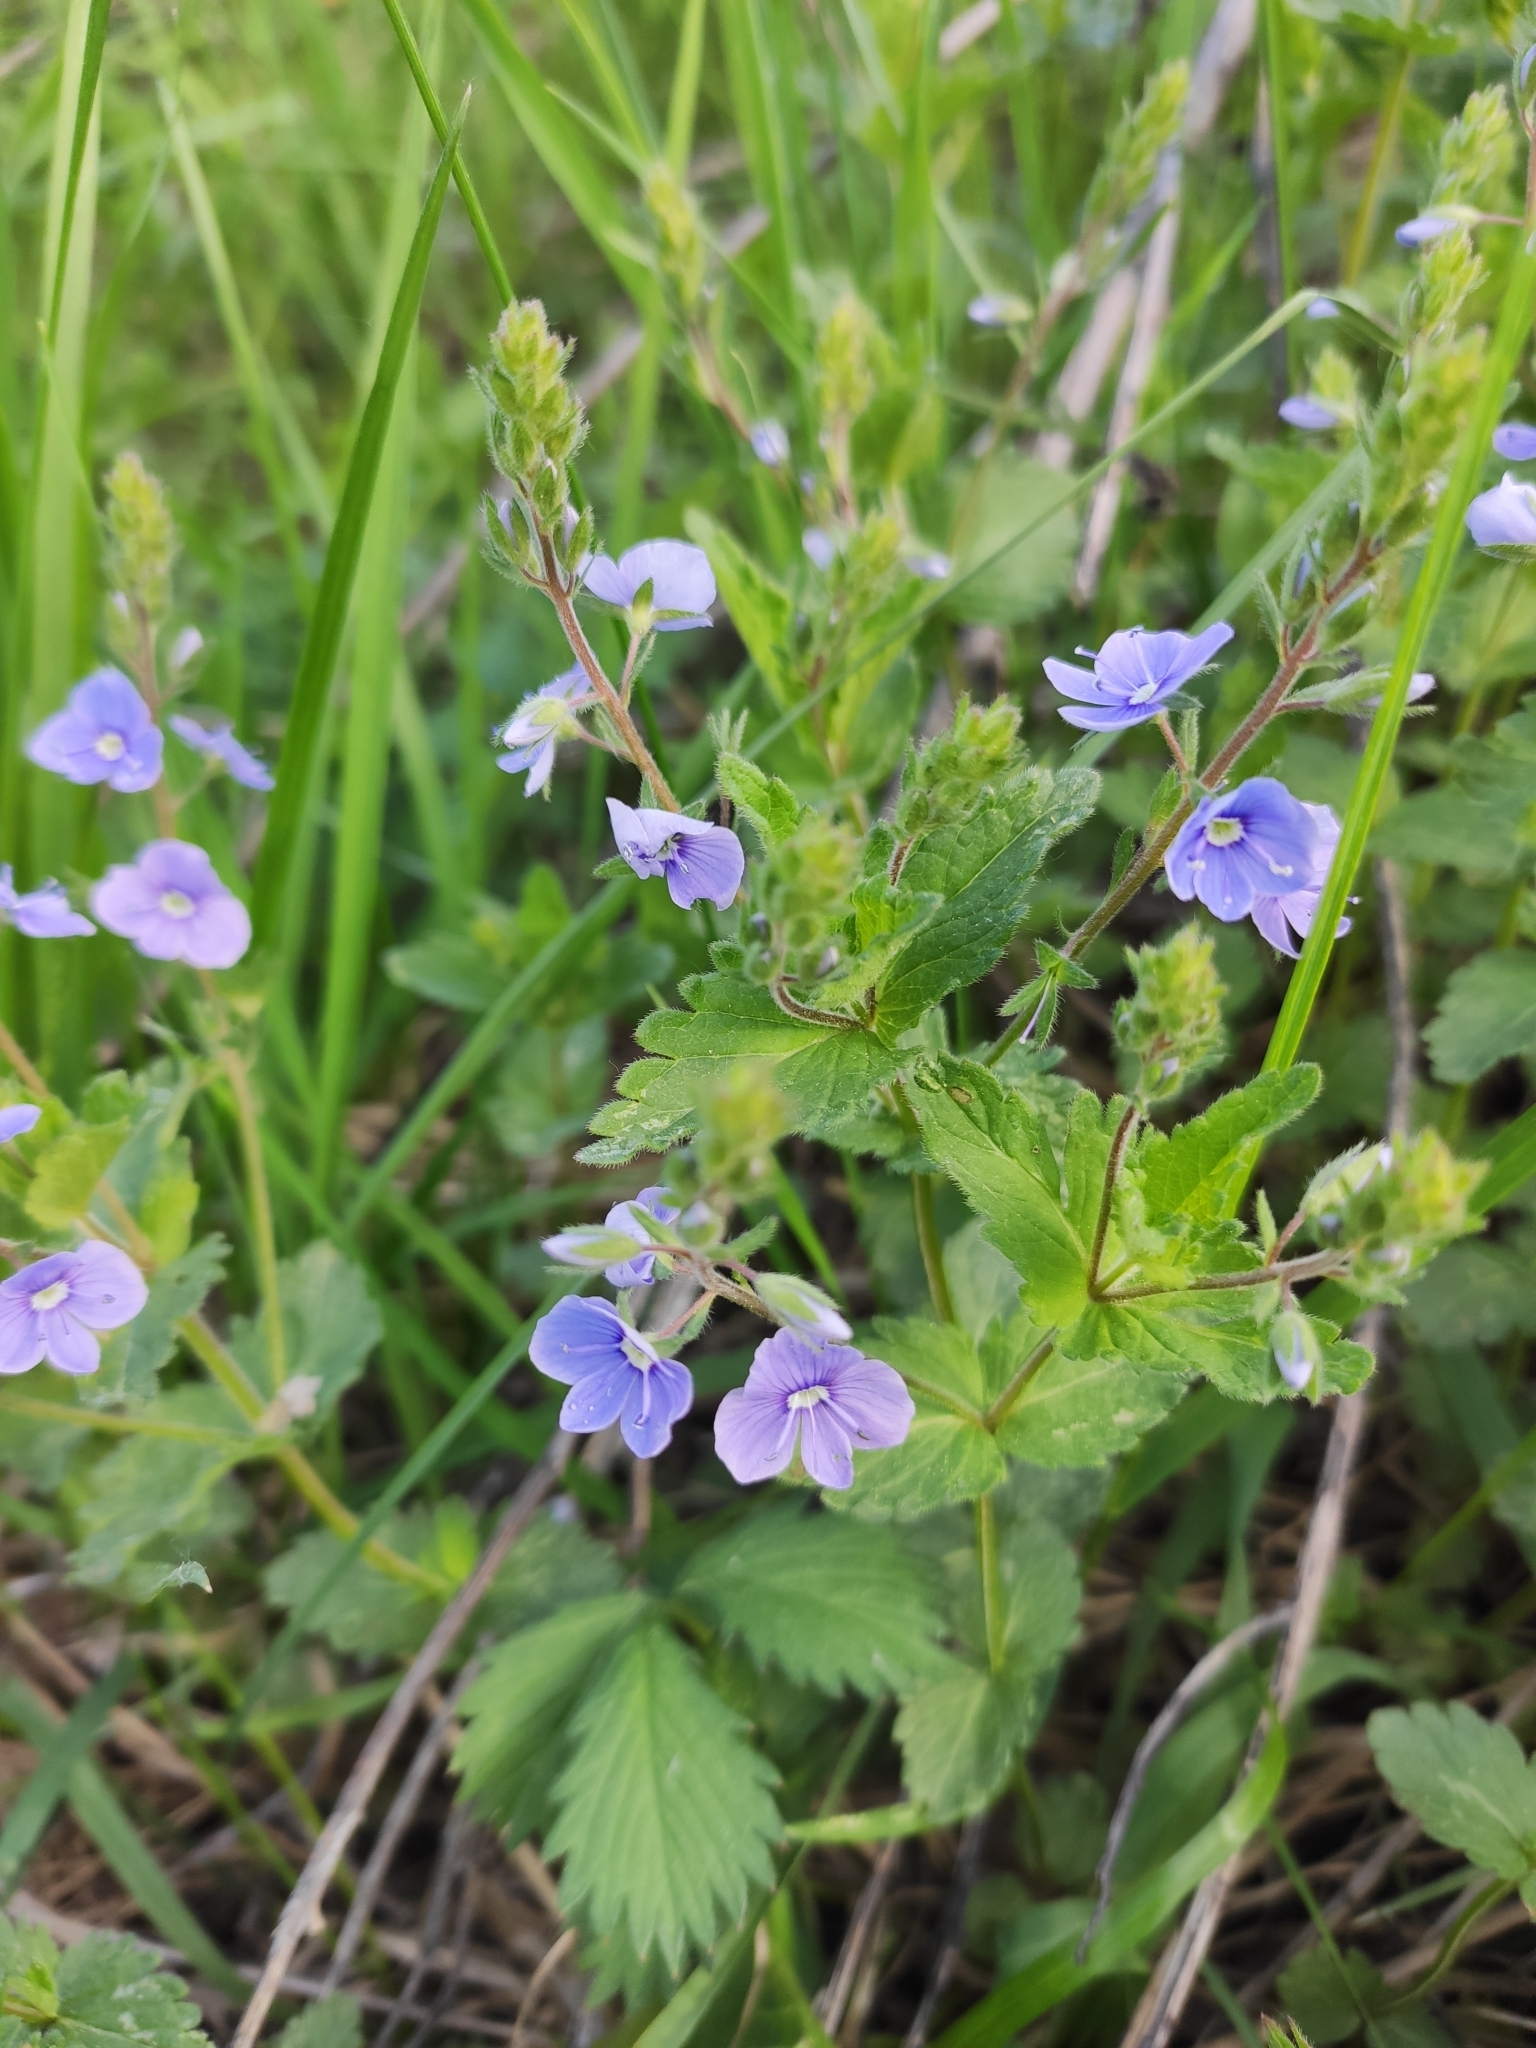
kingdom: Plantae
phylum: Tracheophyta
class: Magnoliopsida
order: Lamiales
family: Plantaginaceae
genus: Veronica
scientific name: Veronica chamaedrys
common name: Germander speedwell
